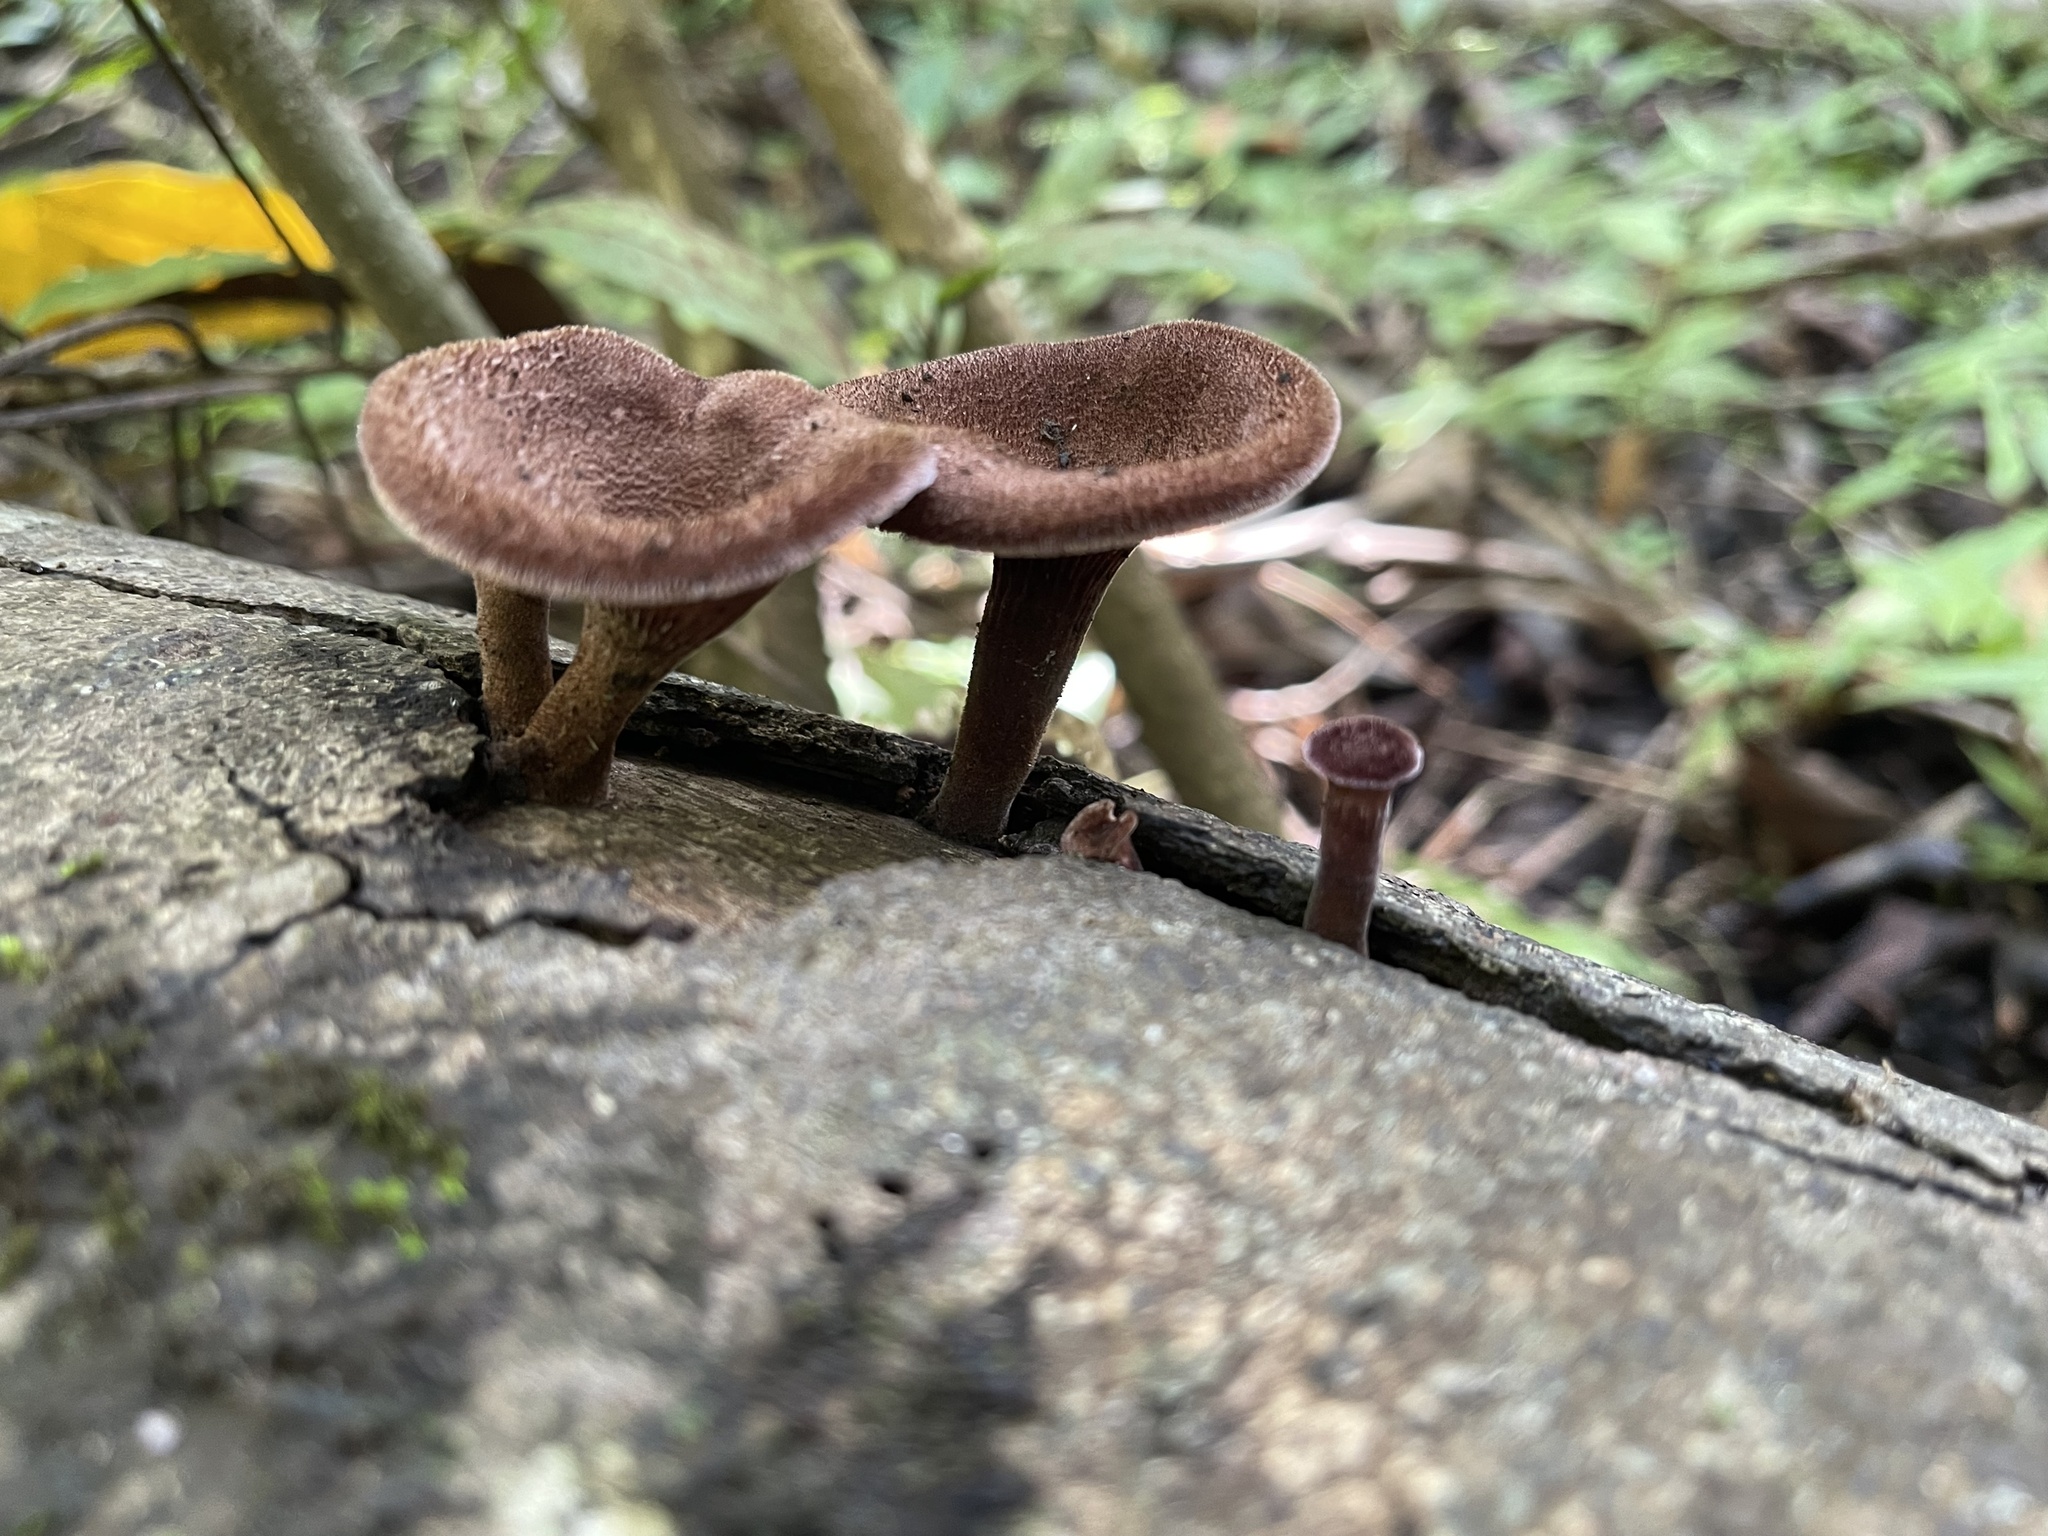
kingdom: Fungi
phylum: Basidiomycota
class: Agaricomycetes
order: Polyporales
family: Panaceae
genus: Panus
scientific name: Panus neostrigosus
